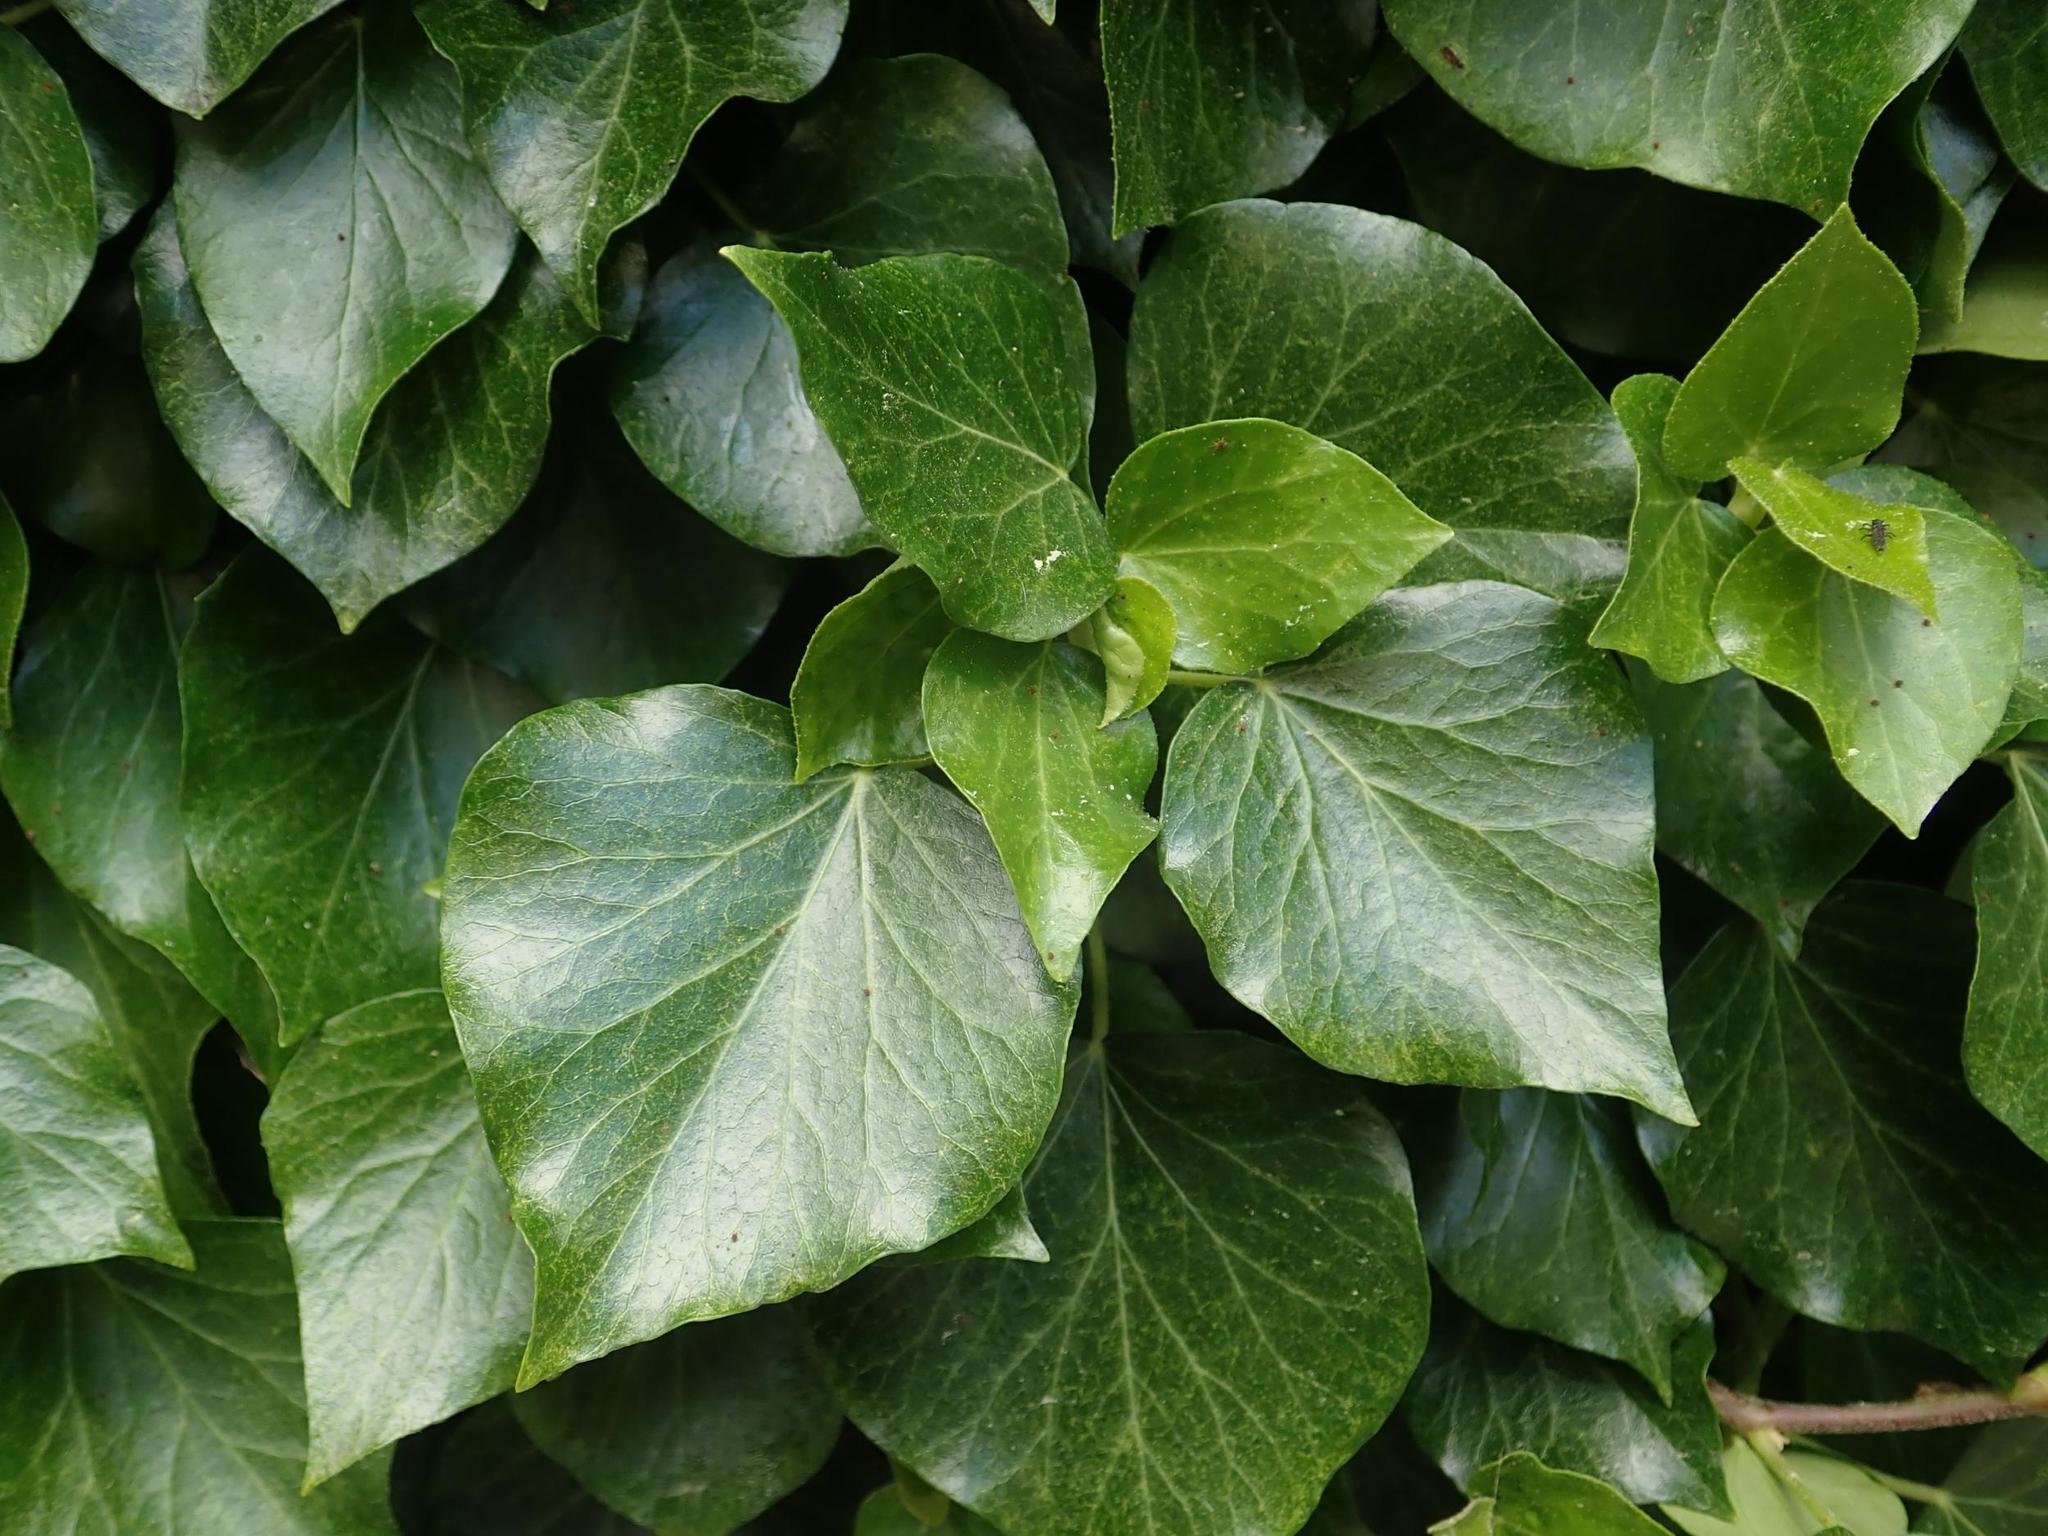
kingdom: Plantae
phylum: Tracheophyta
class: Magnoliopsida
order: Apiales
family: Araliaceae
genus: Hedera
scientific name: Hedera helix
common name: Ivy
